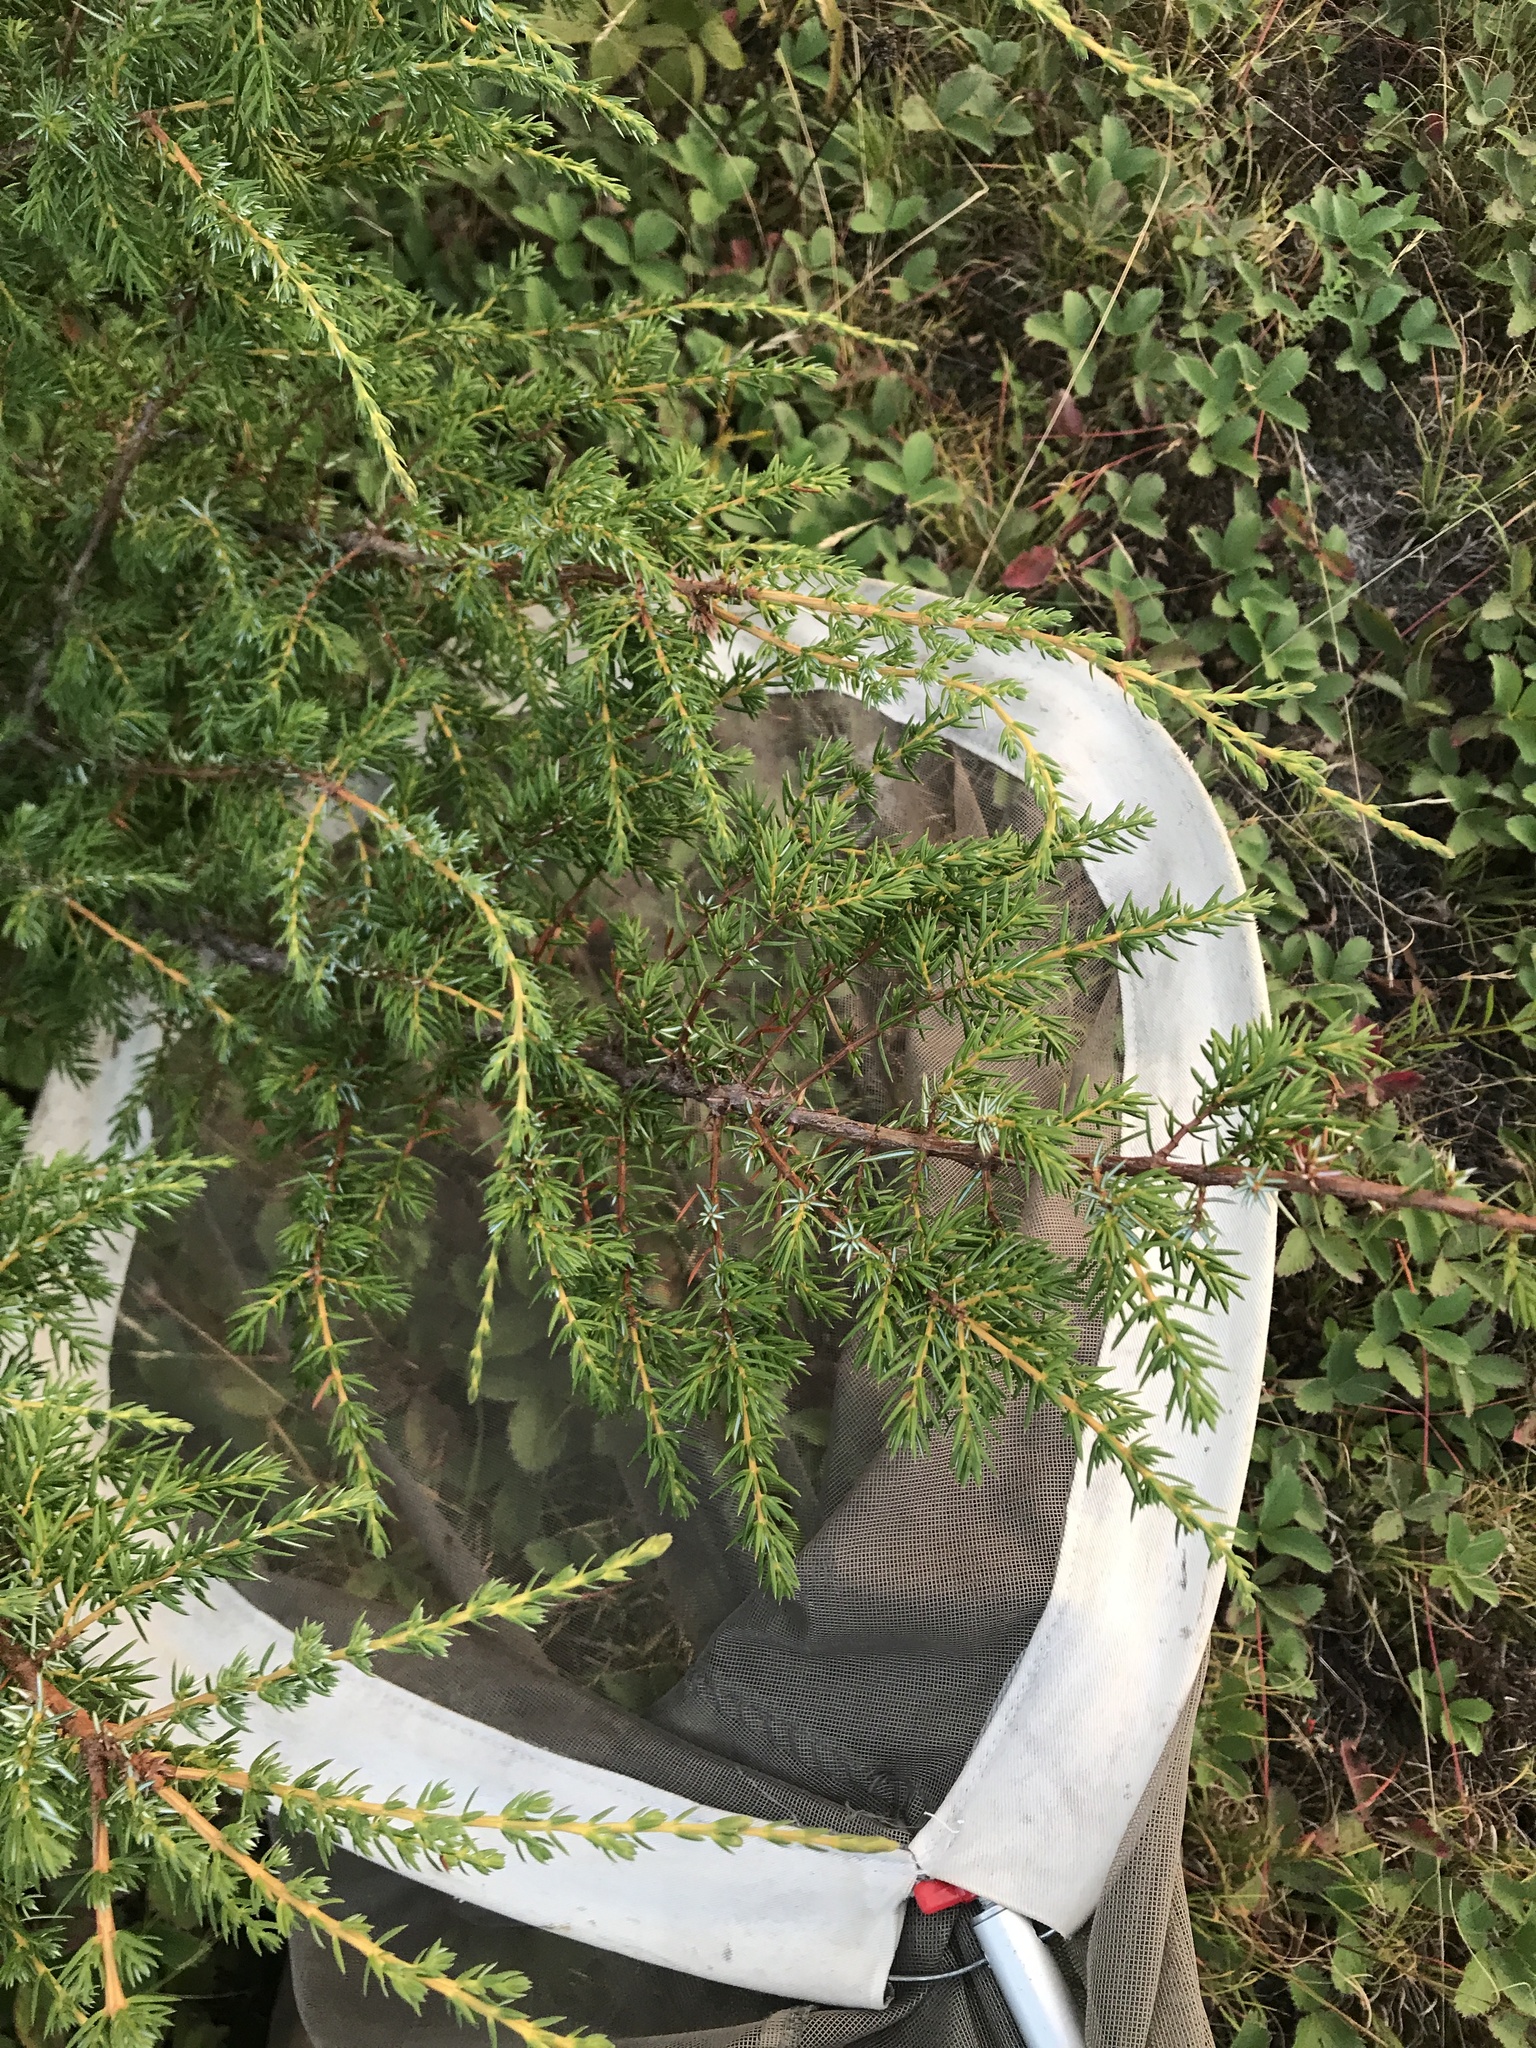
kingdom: Plantae
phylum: Tracheophyta
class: Pinopsida
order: Pinales
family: Cupressaceae
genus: Juniperus
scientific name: Juniperus communis
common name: Common juniper
